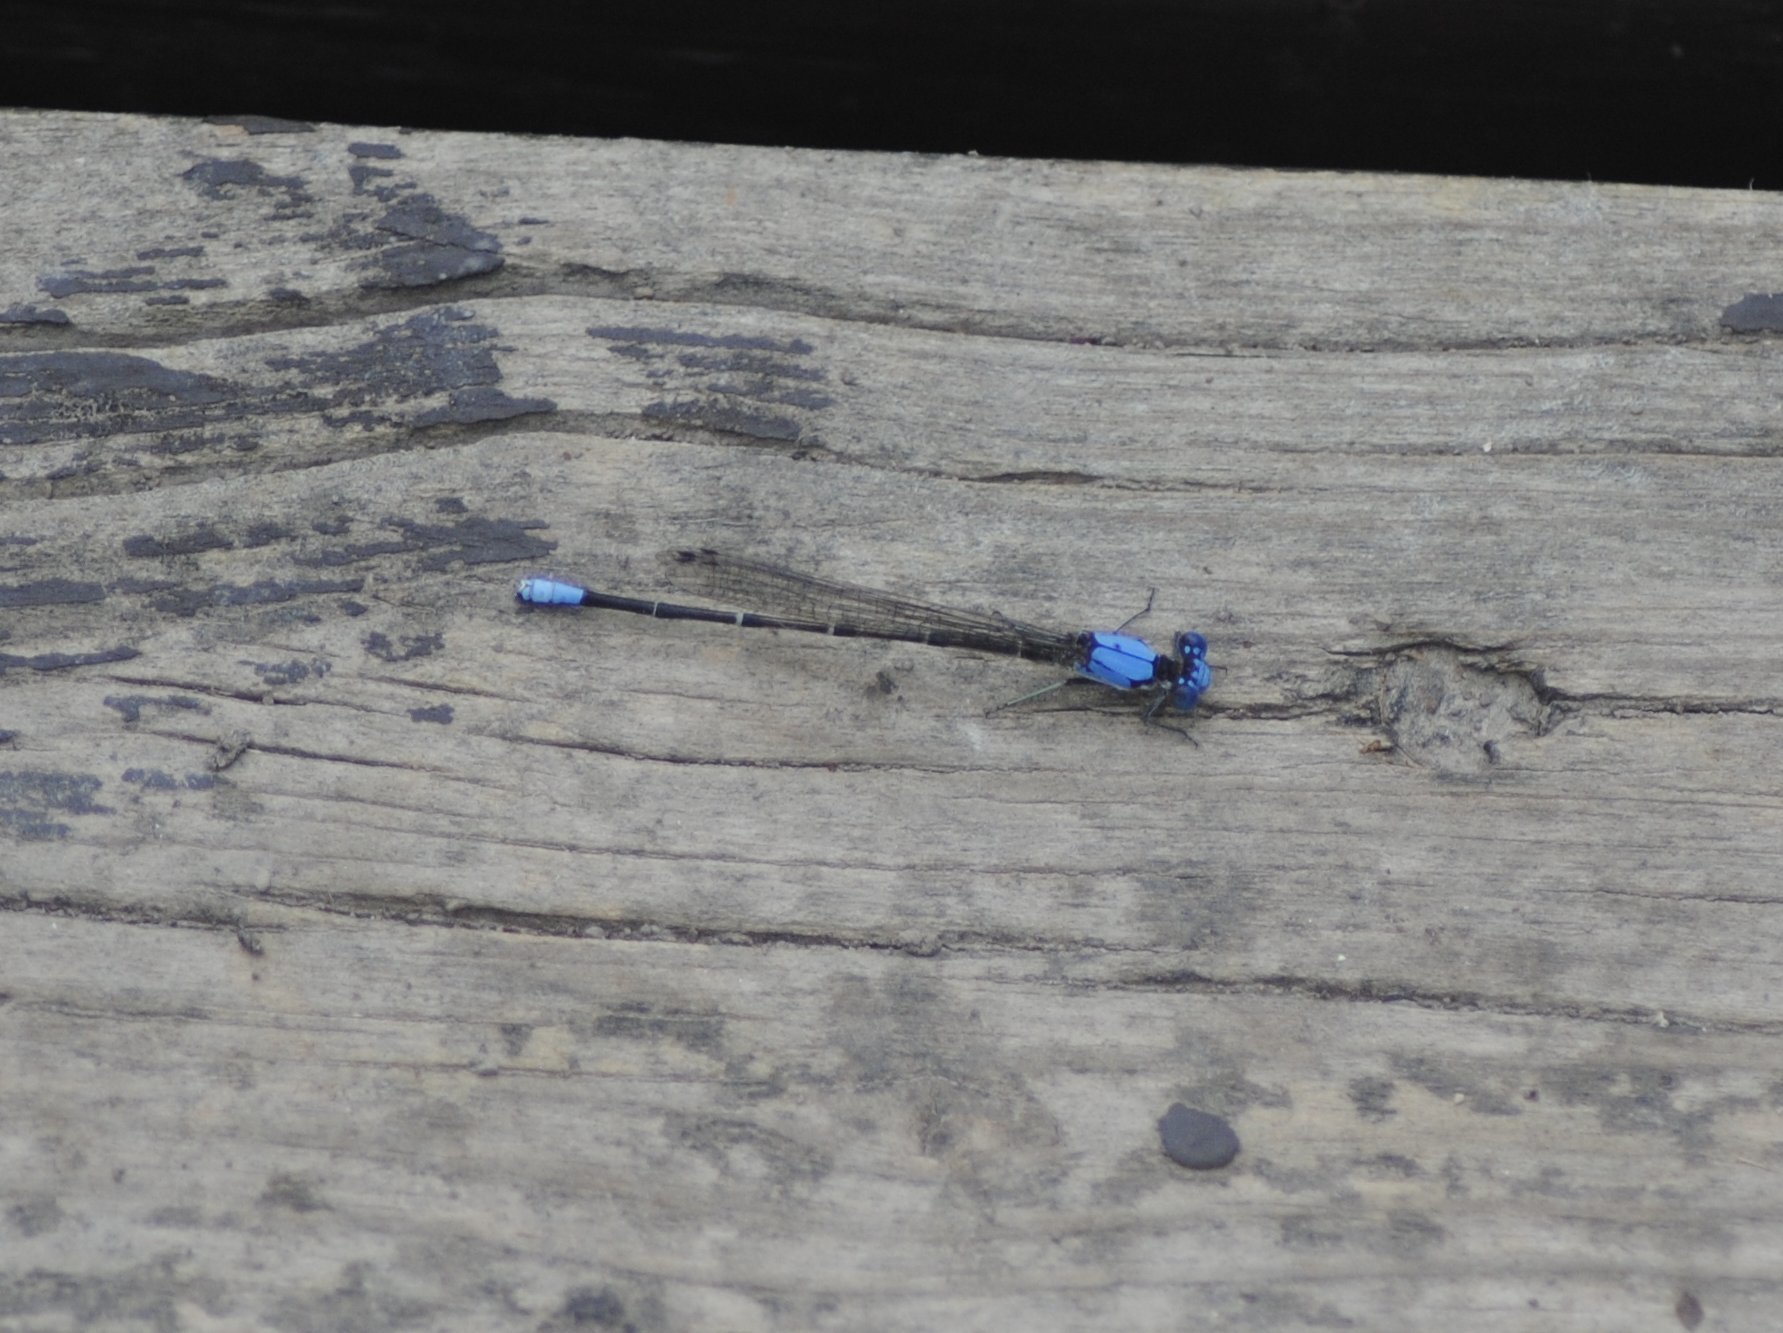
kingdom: Animalia
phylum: Arthropoda
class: Insecta
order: Odonata
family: Coenagrionidae
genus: Argia
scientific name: Argia apicalis
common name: Blue-fronted dancer
